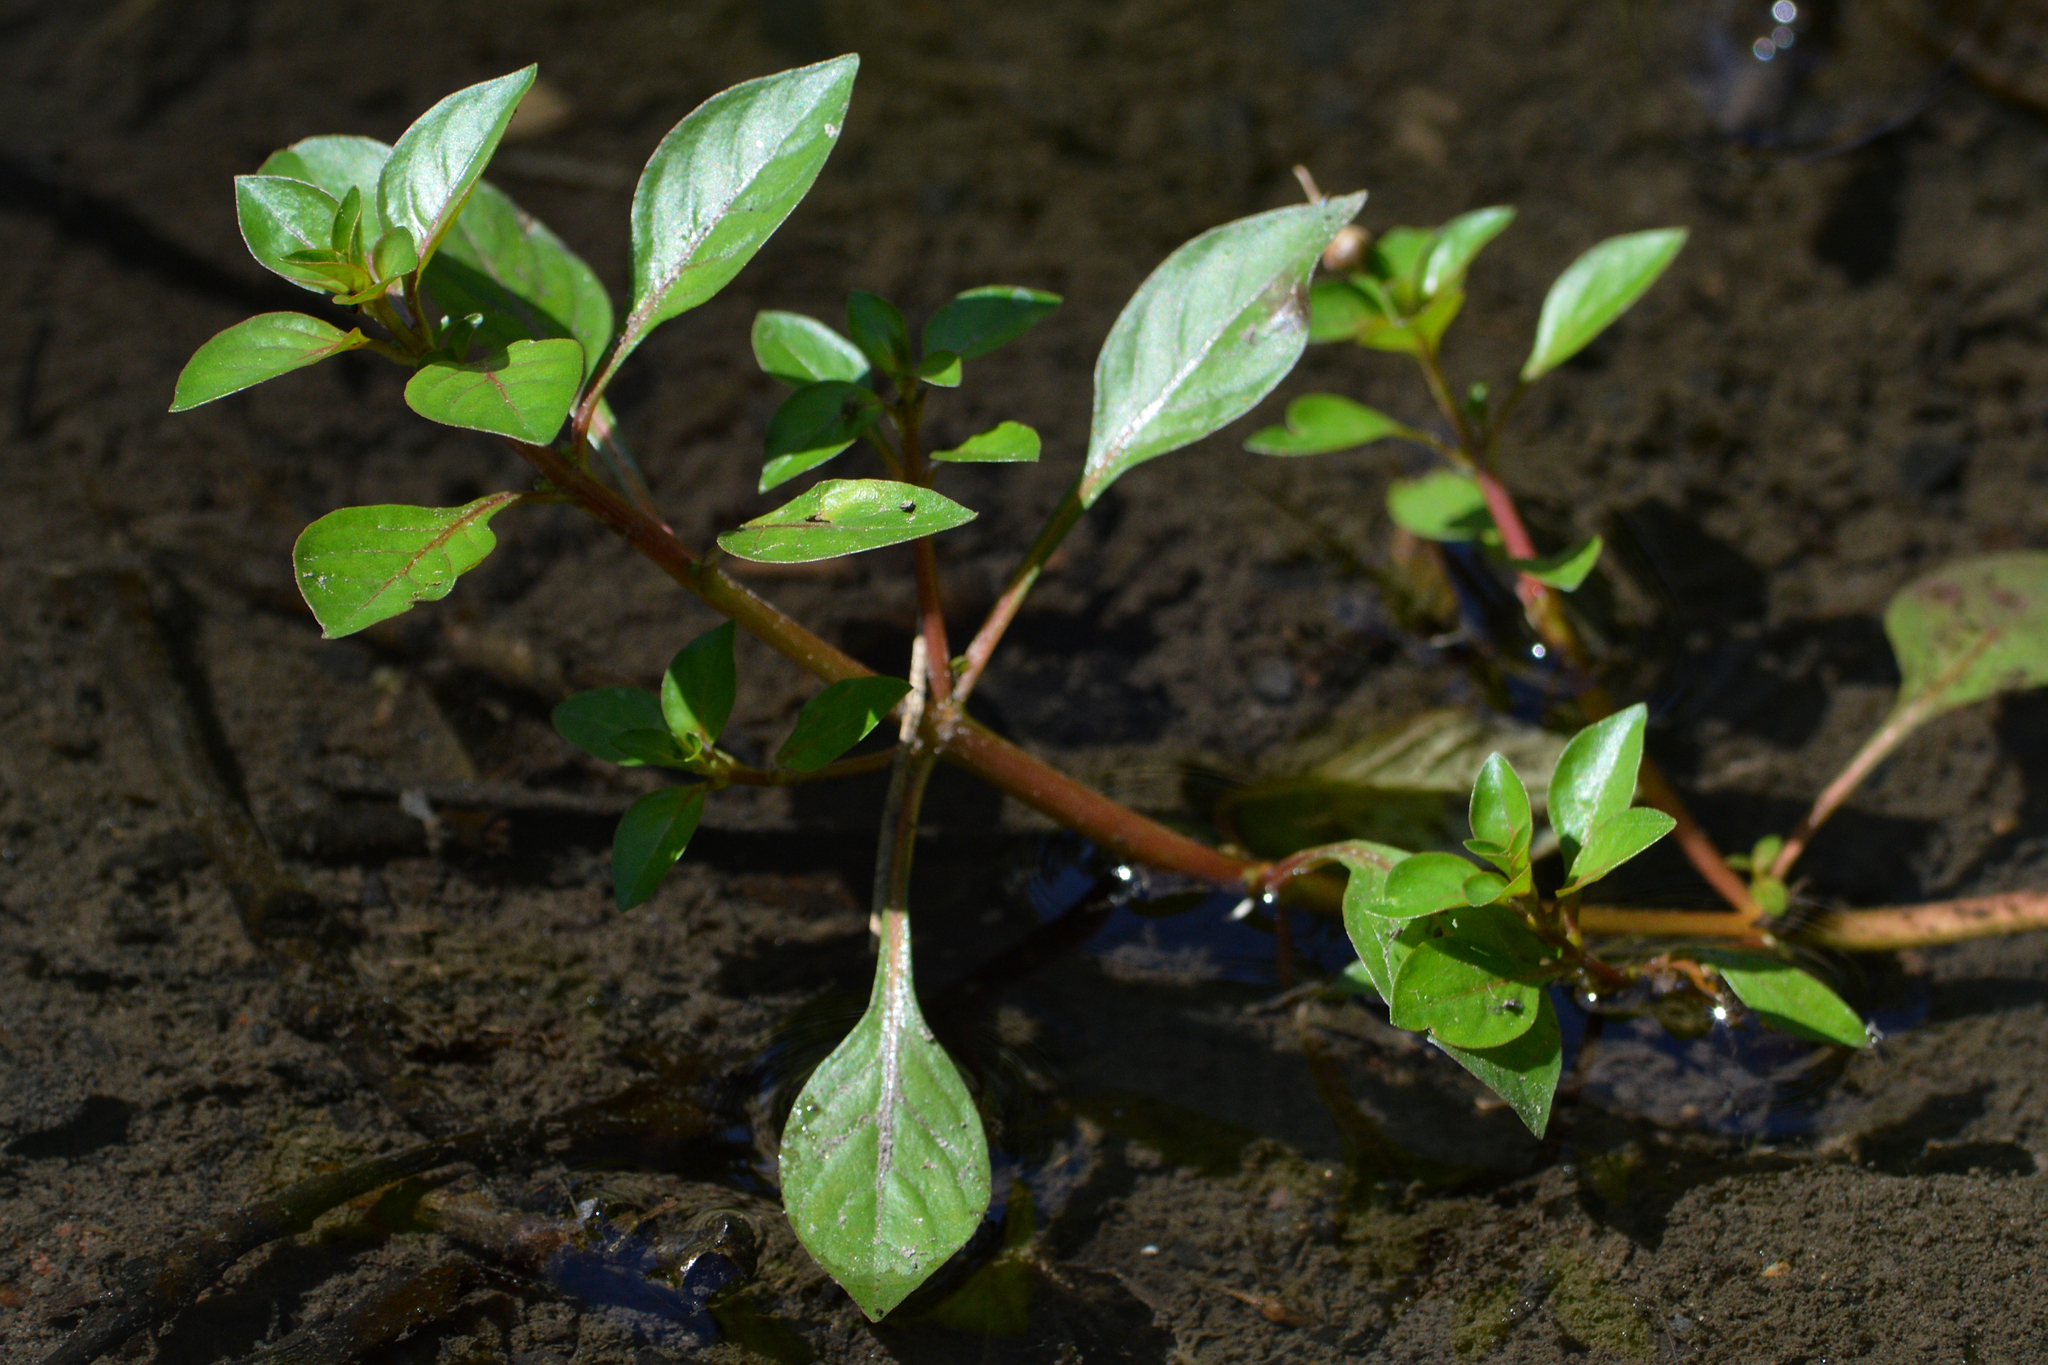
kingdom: Plantae
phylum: Tracheophyta
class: Magnoliopsida
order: Myrtales
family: Onagraceae
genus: Ludwigia
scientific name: Ludwigia palustris
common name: Hampshire-purslane
